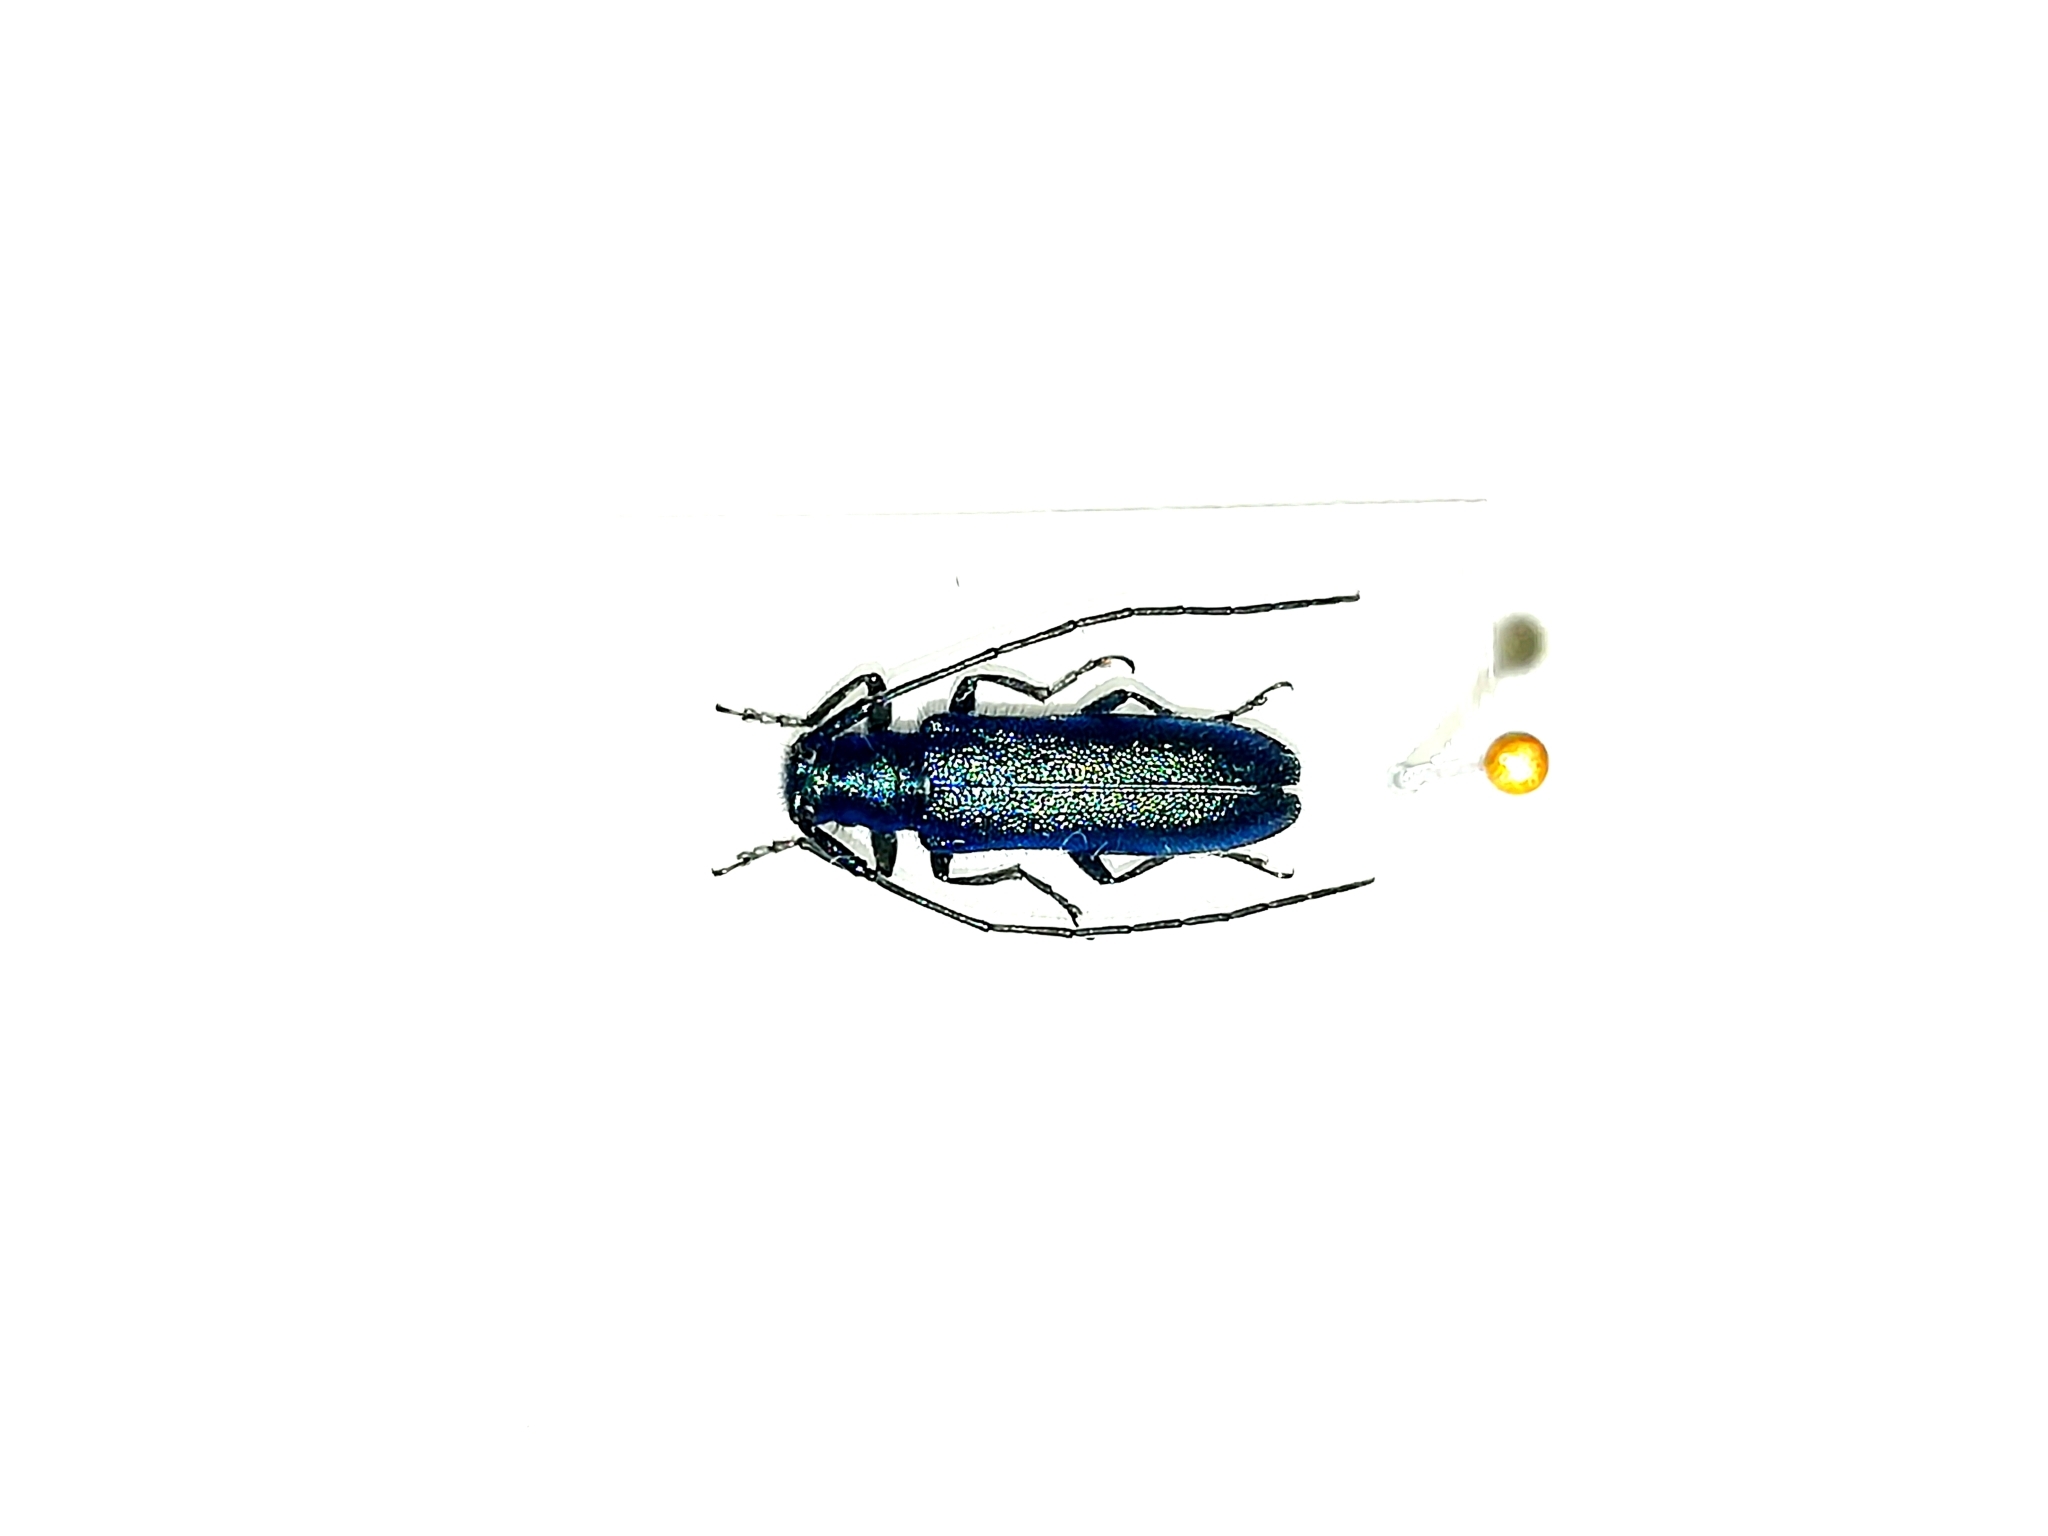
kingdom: Animalia
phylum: Arthropoda
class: Insecta
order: Coleoptera
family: Cerambycidae
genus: Agapanthia
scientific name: Agapanthia intermedia
